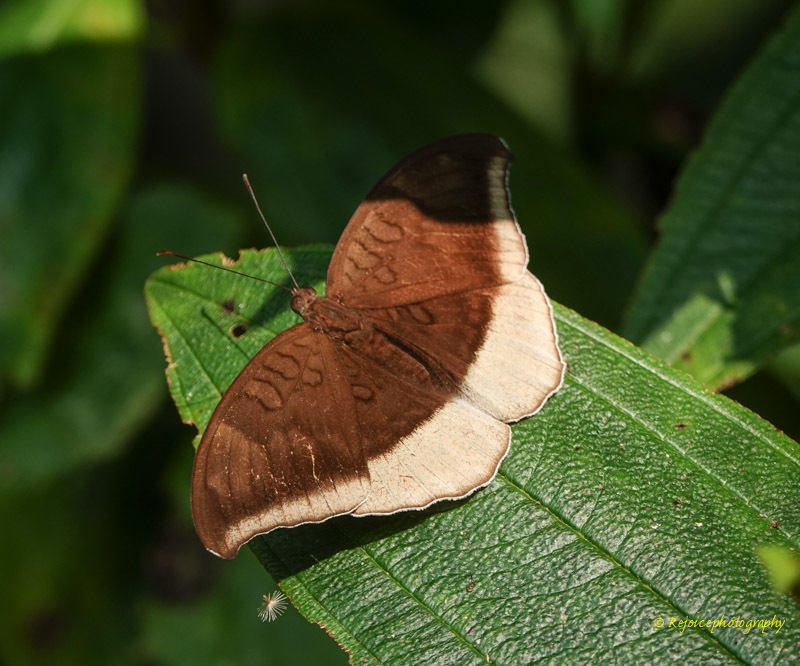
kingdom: Animalia
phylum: Arthropoda
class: Insecta
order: Lepidoptera
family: Nymphalidae
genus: Tanaecia
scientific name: Tanaecia lepidea
